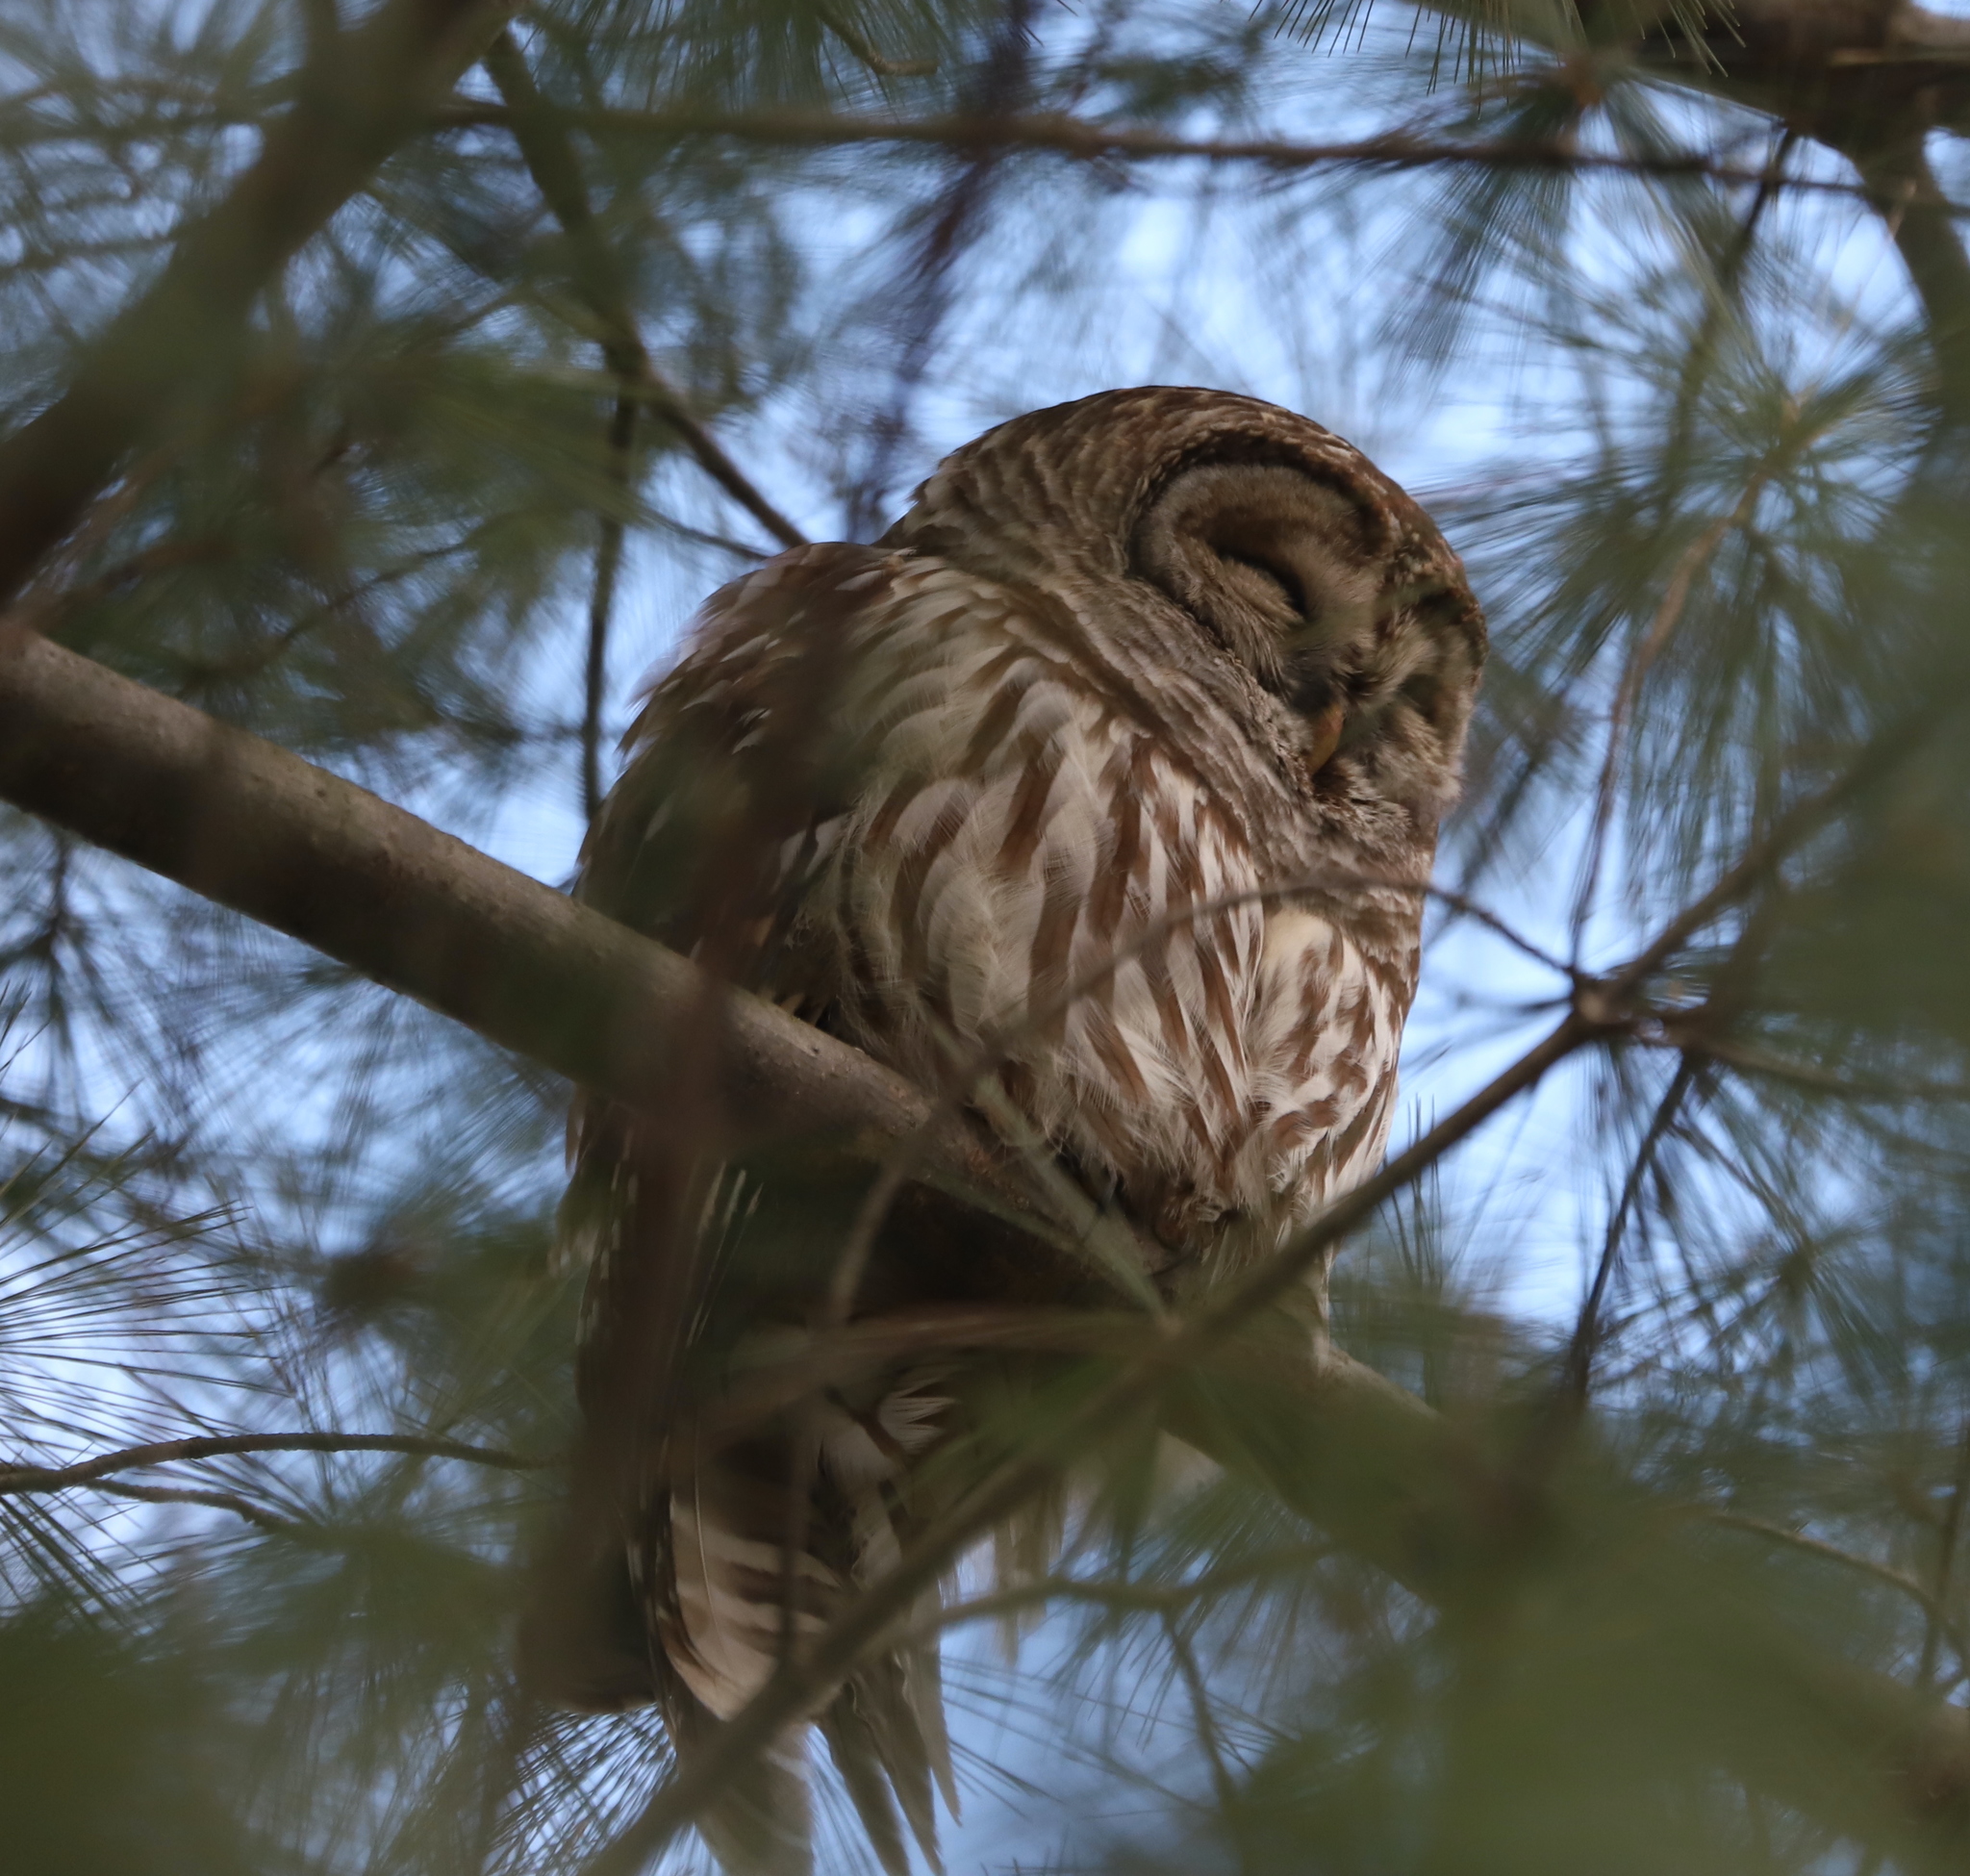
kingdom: Animalia
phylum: Chordata
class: Aves
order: Strigiformes
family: Strigidae
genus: Strix
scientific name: Strix varia
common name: Barred owl
